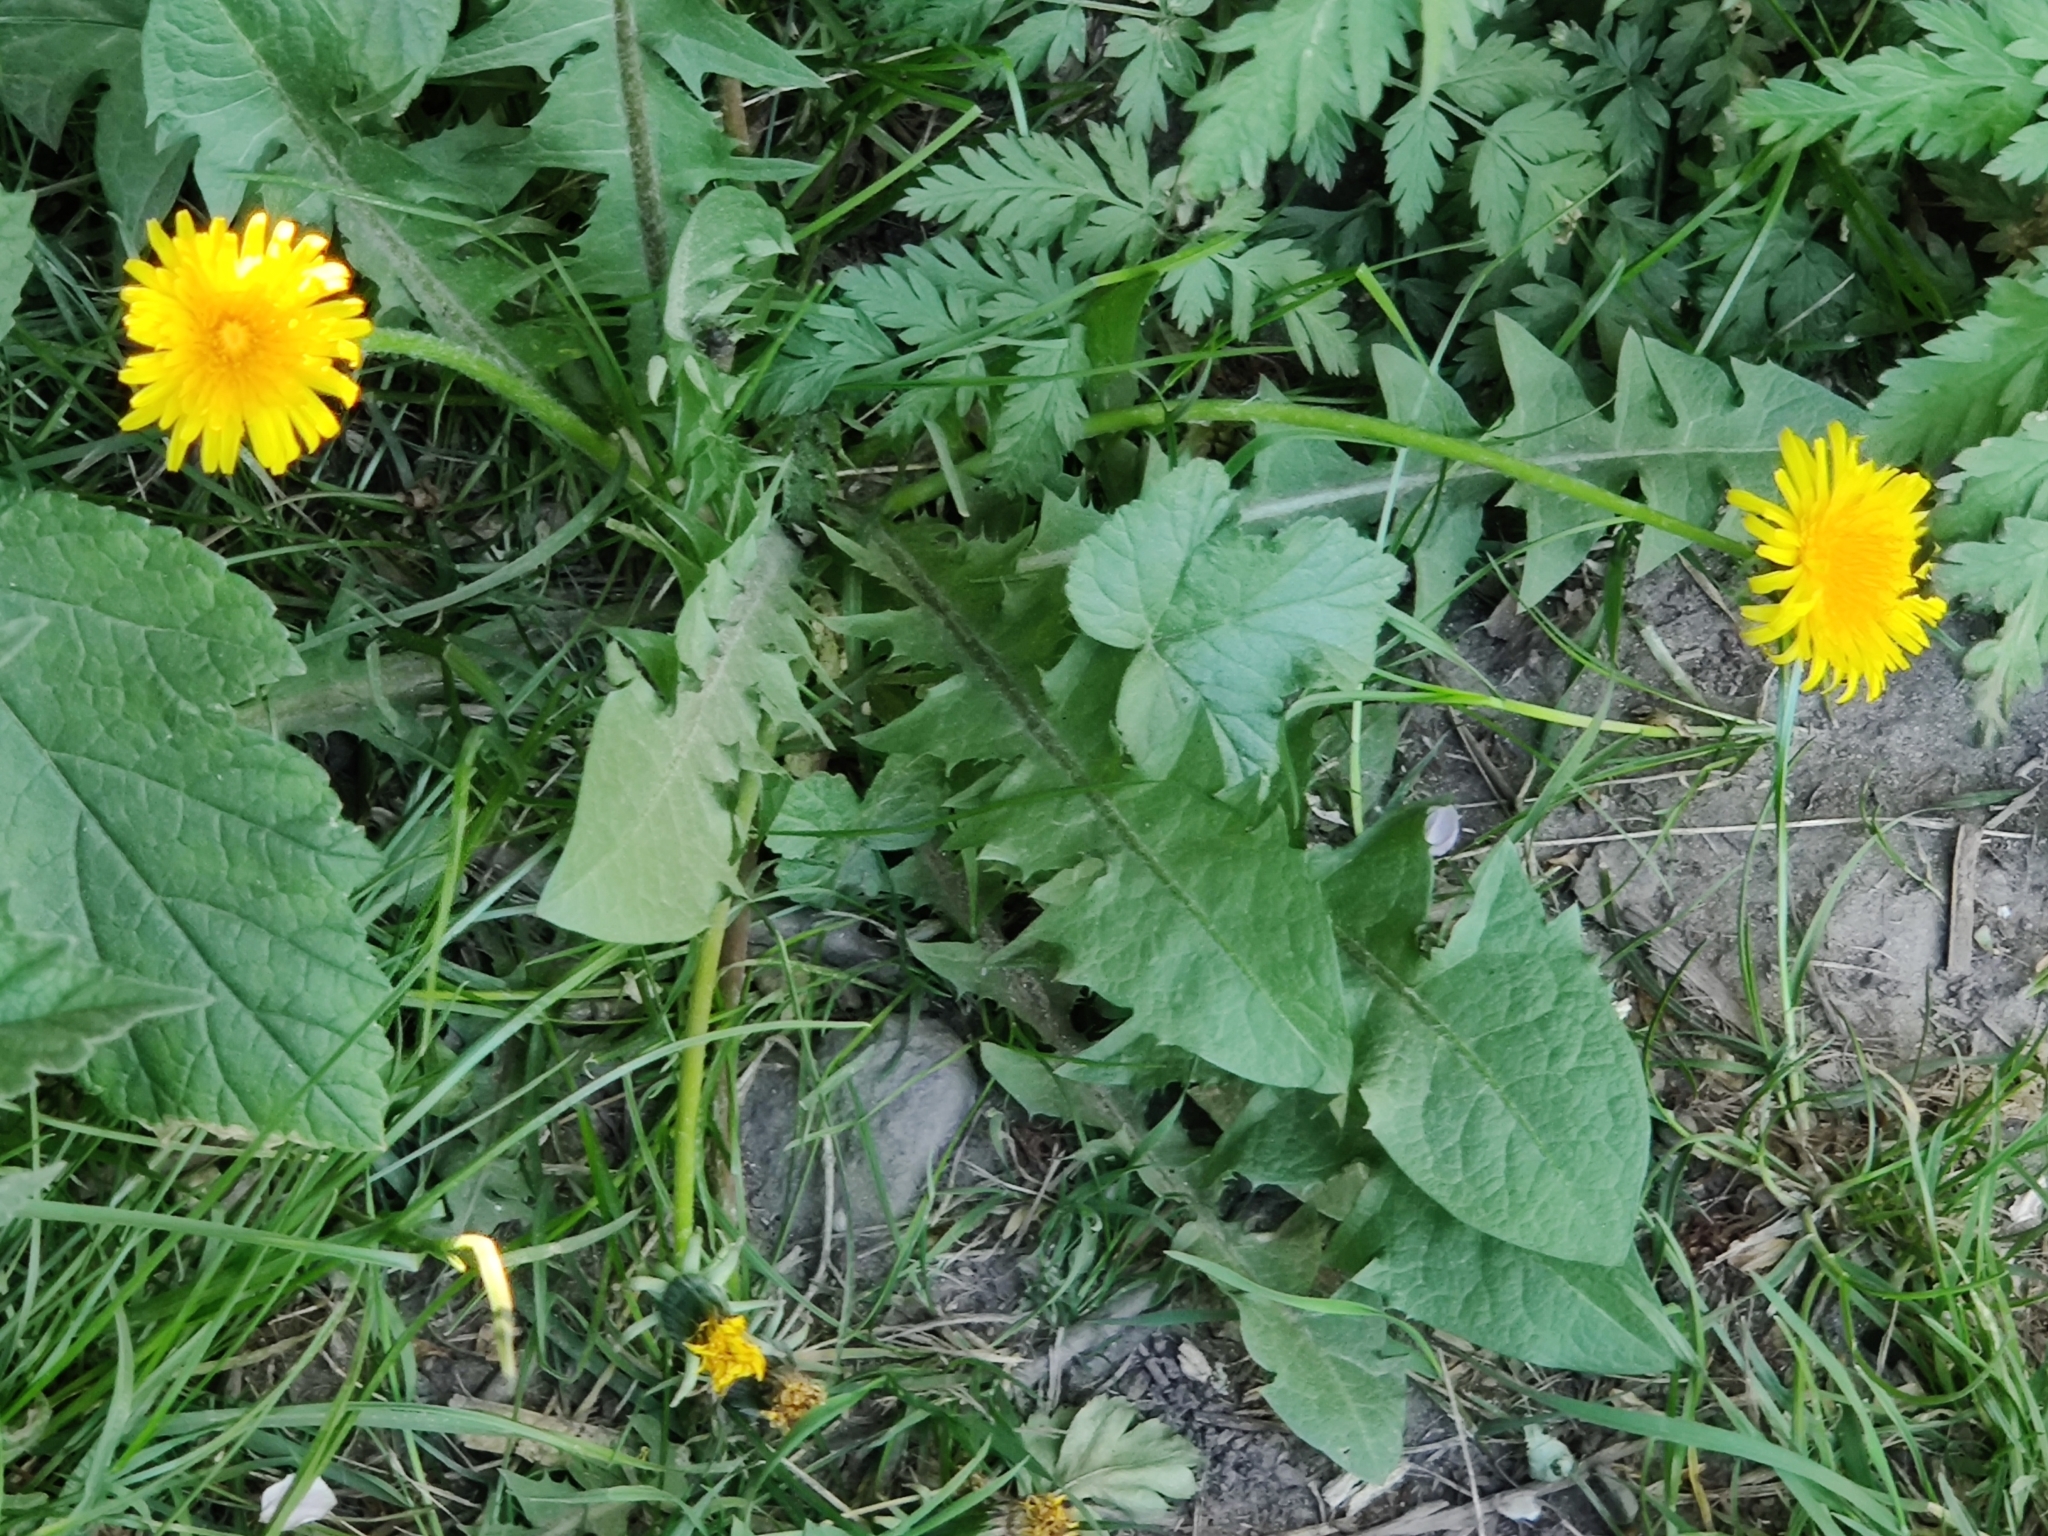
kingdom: Plantae
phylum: Tracheophyta
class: Magnoliopsida
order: Asterales
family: Asteraceae
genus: Taraxacum
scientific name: Taraxacum officinale
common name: Common dandelion
